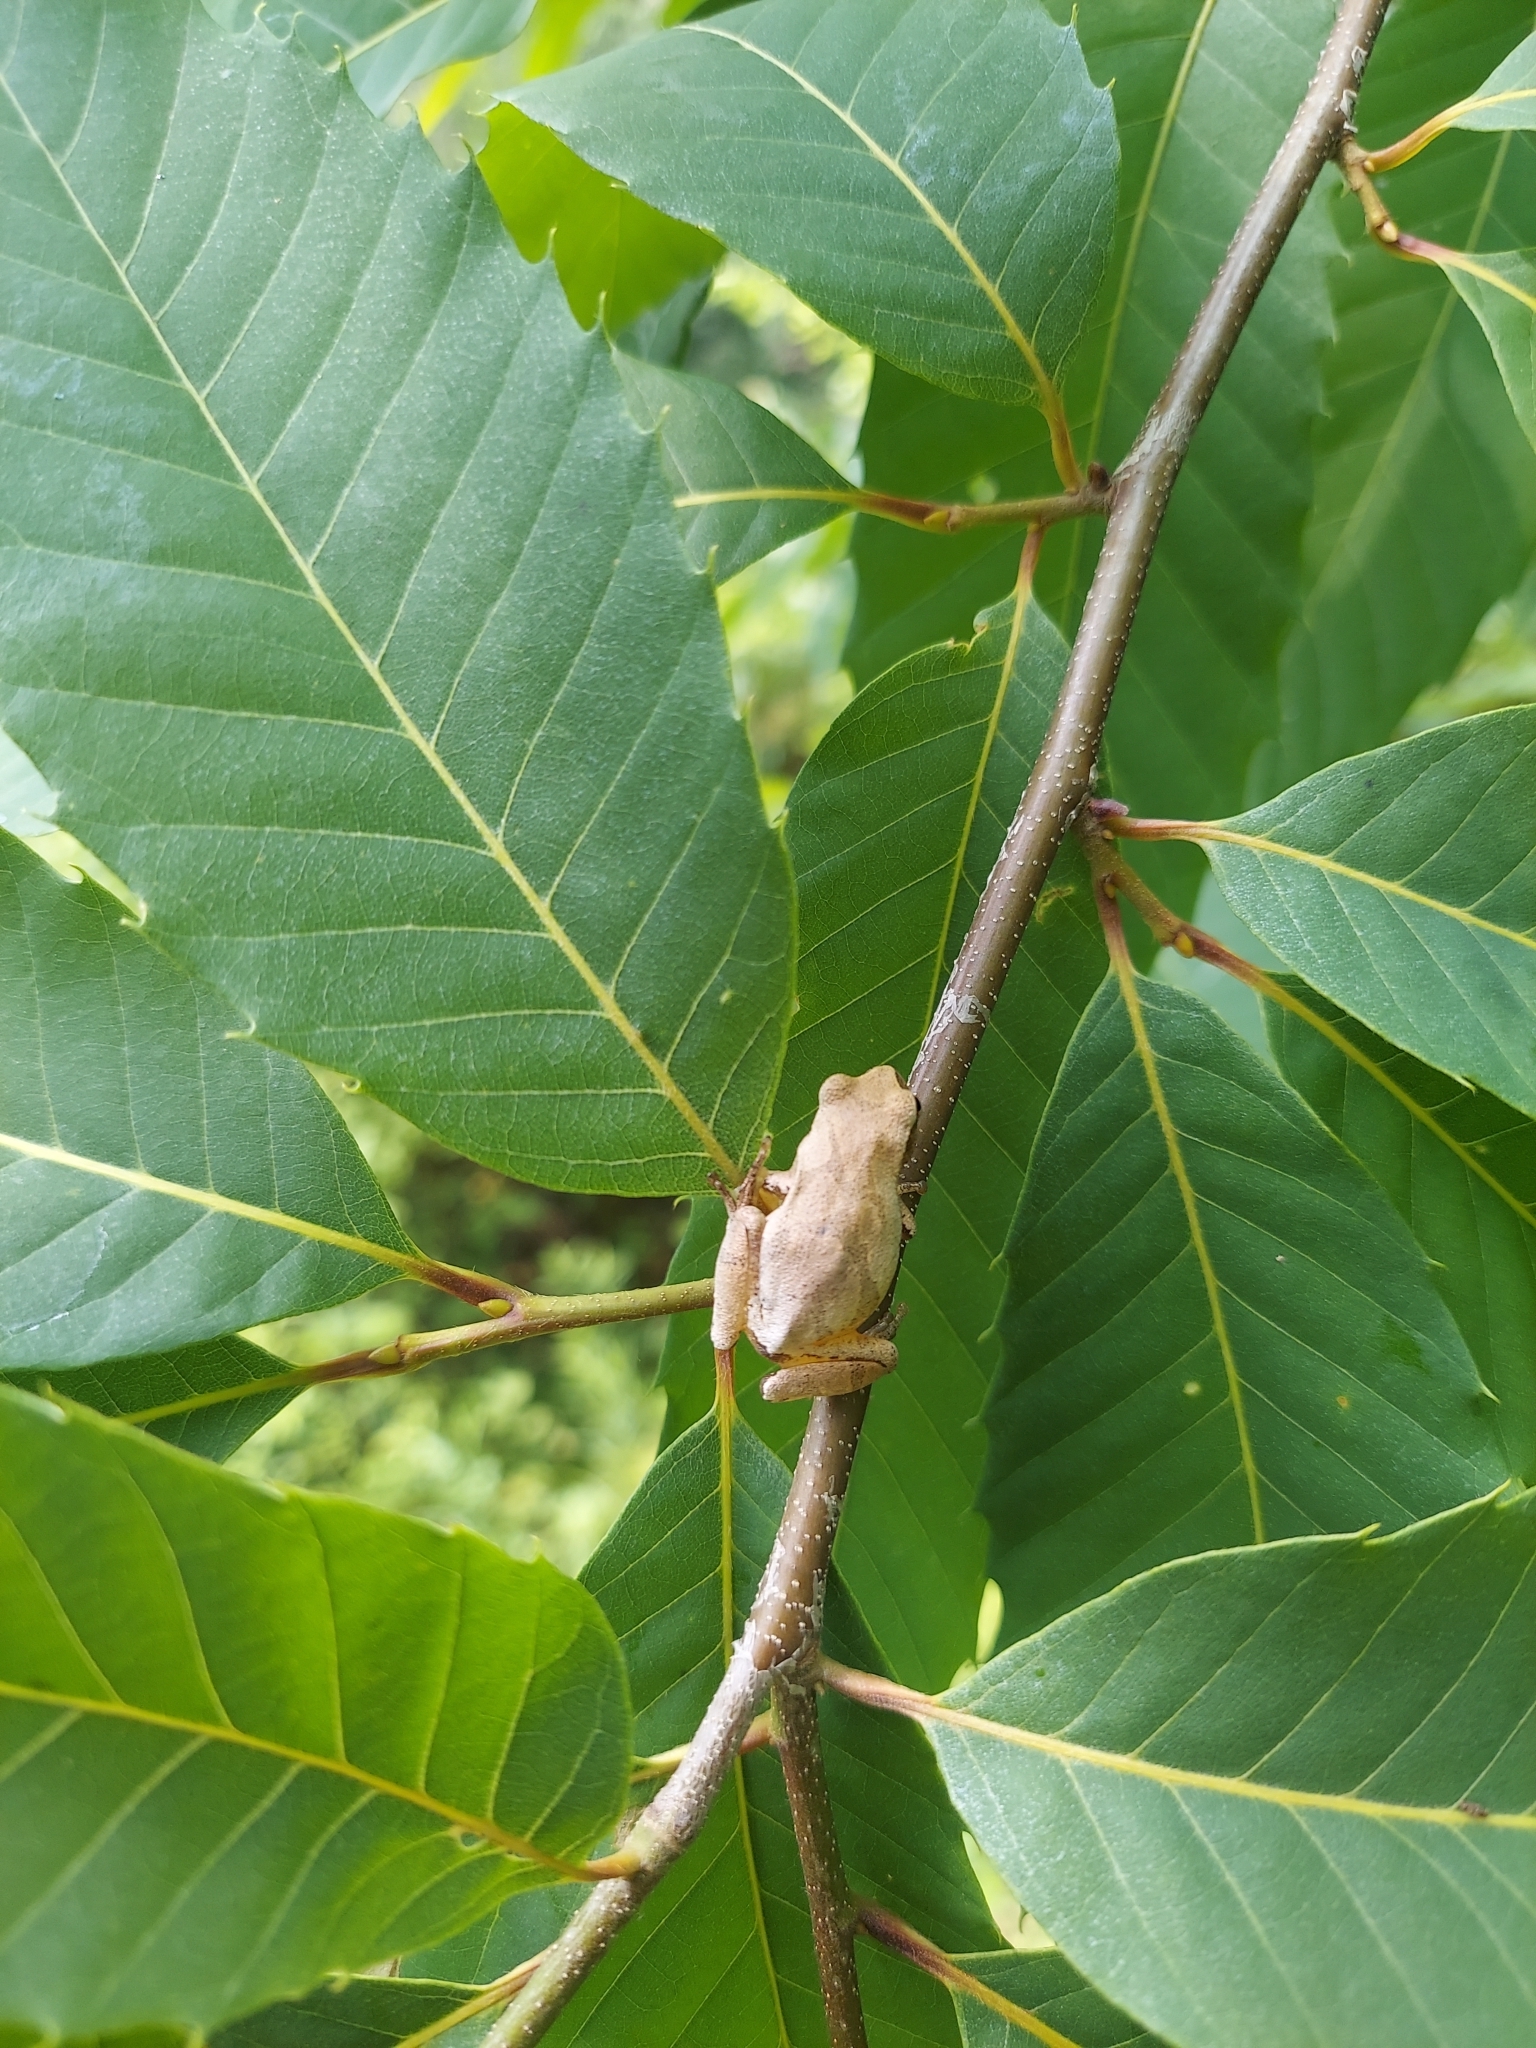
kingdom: Animalia
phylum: Chordata
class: Amphibia
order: Anura
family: Hylidae
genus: Pseudacris
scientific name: Pseudacris crucifer
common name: Spring peeper
